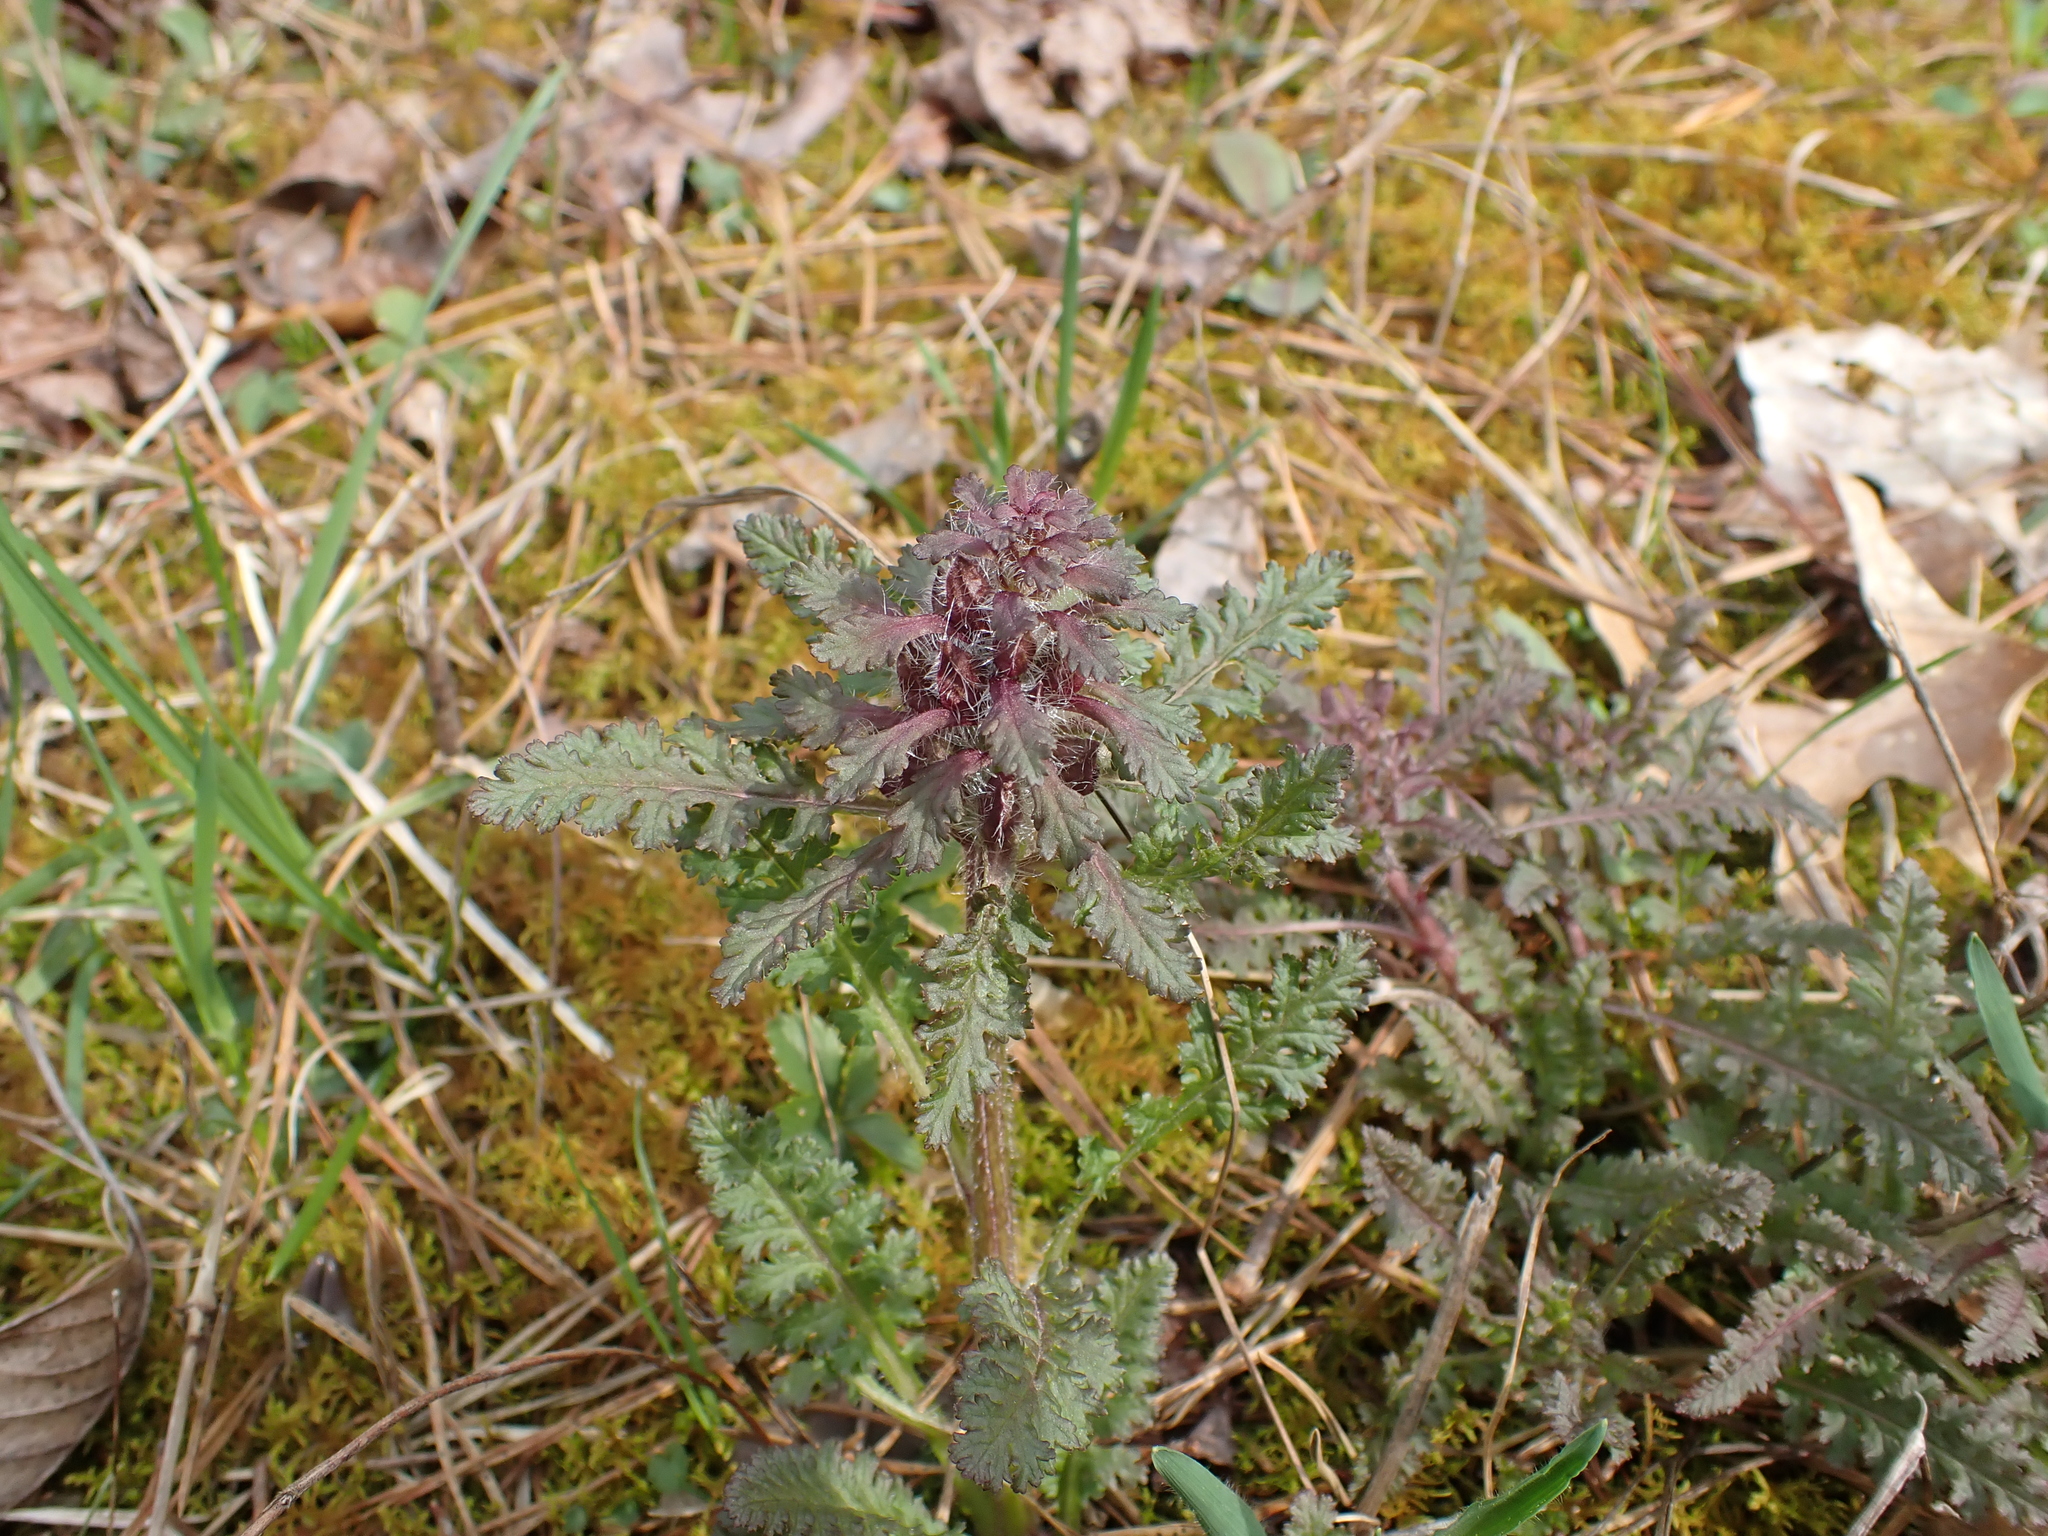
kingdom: Plantae
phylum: Tracheophyta
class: Magnoliopsida
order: Lamiales
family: Orobanchaceae
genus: Pedicularis
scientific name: Pedicularis canadensis
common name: Early lousewort
